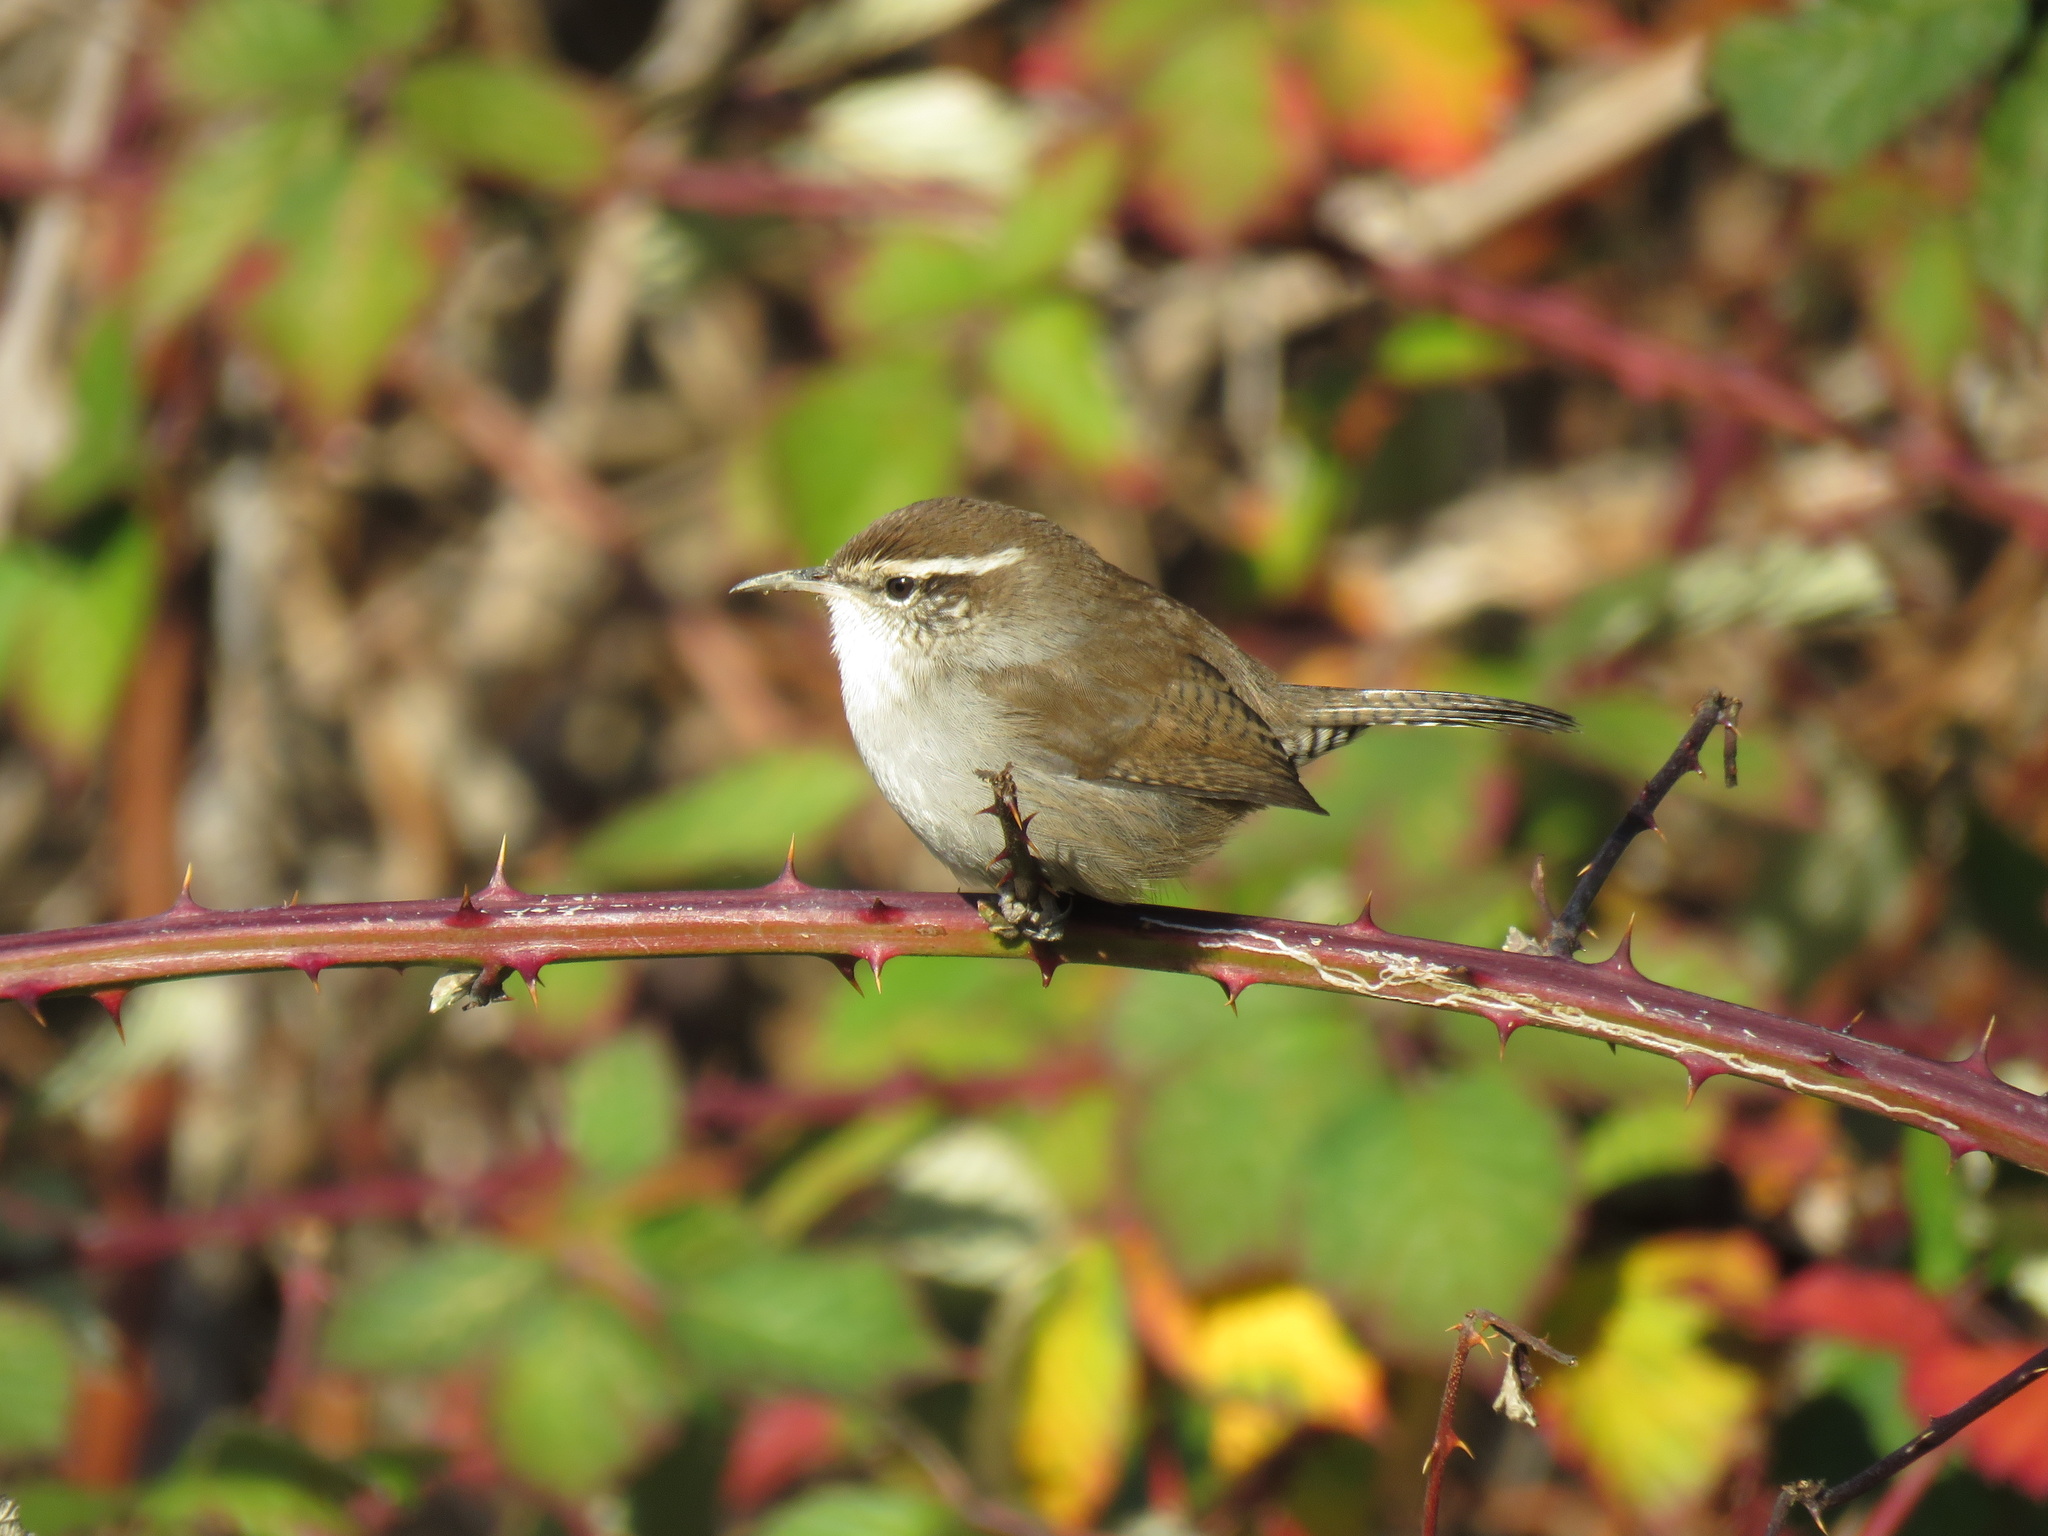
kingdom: Animalia
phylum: Chordata
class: Aves
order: Passeriformes
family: Troglodytidae
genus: Thryomanes
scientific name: Thryomanes bewickii
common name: Bewick's wren
